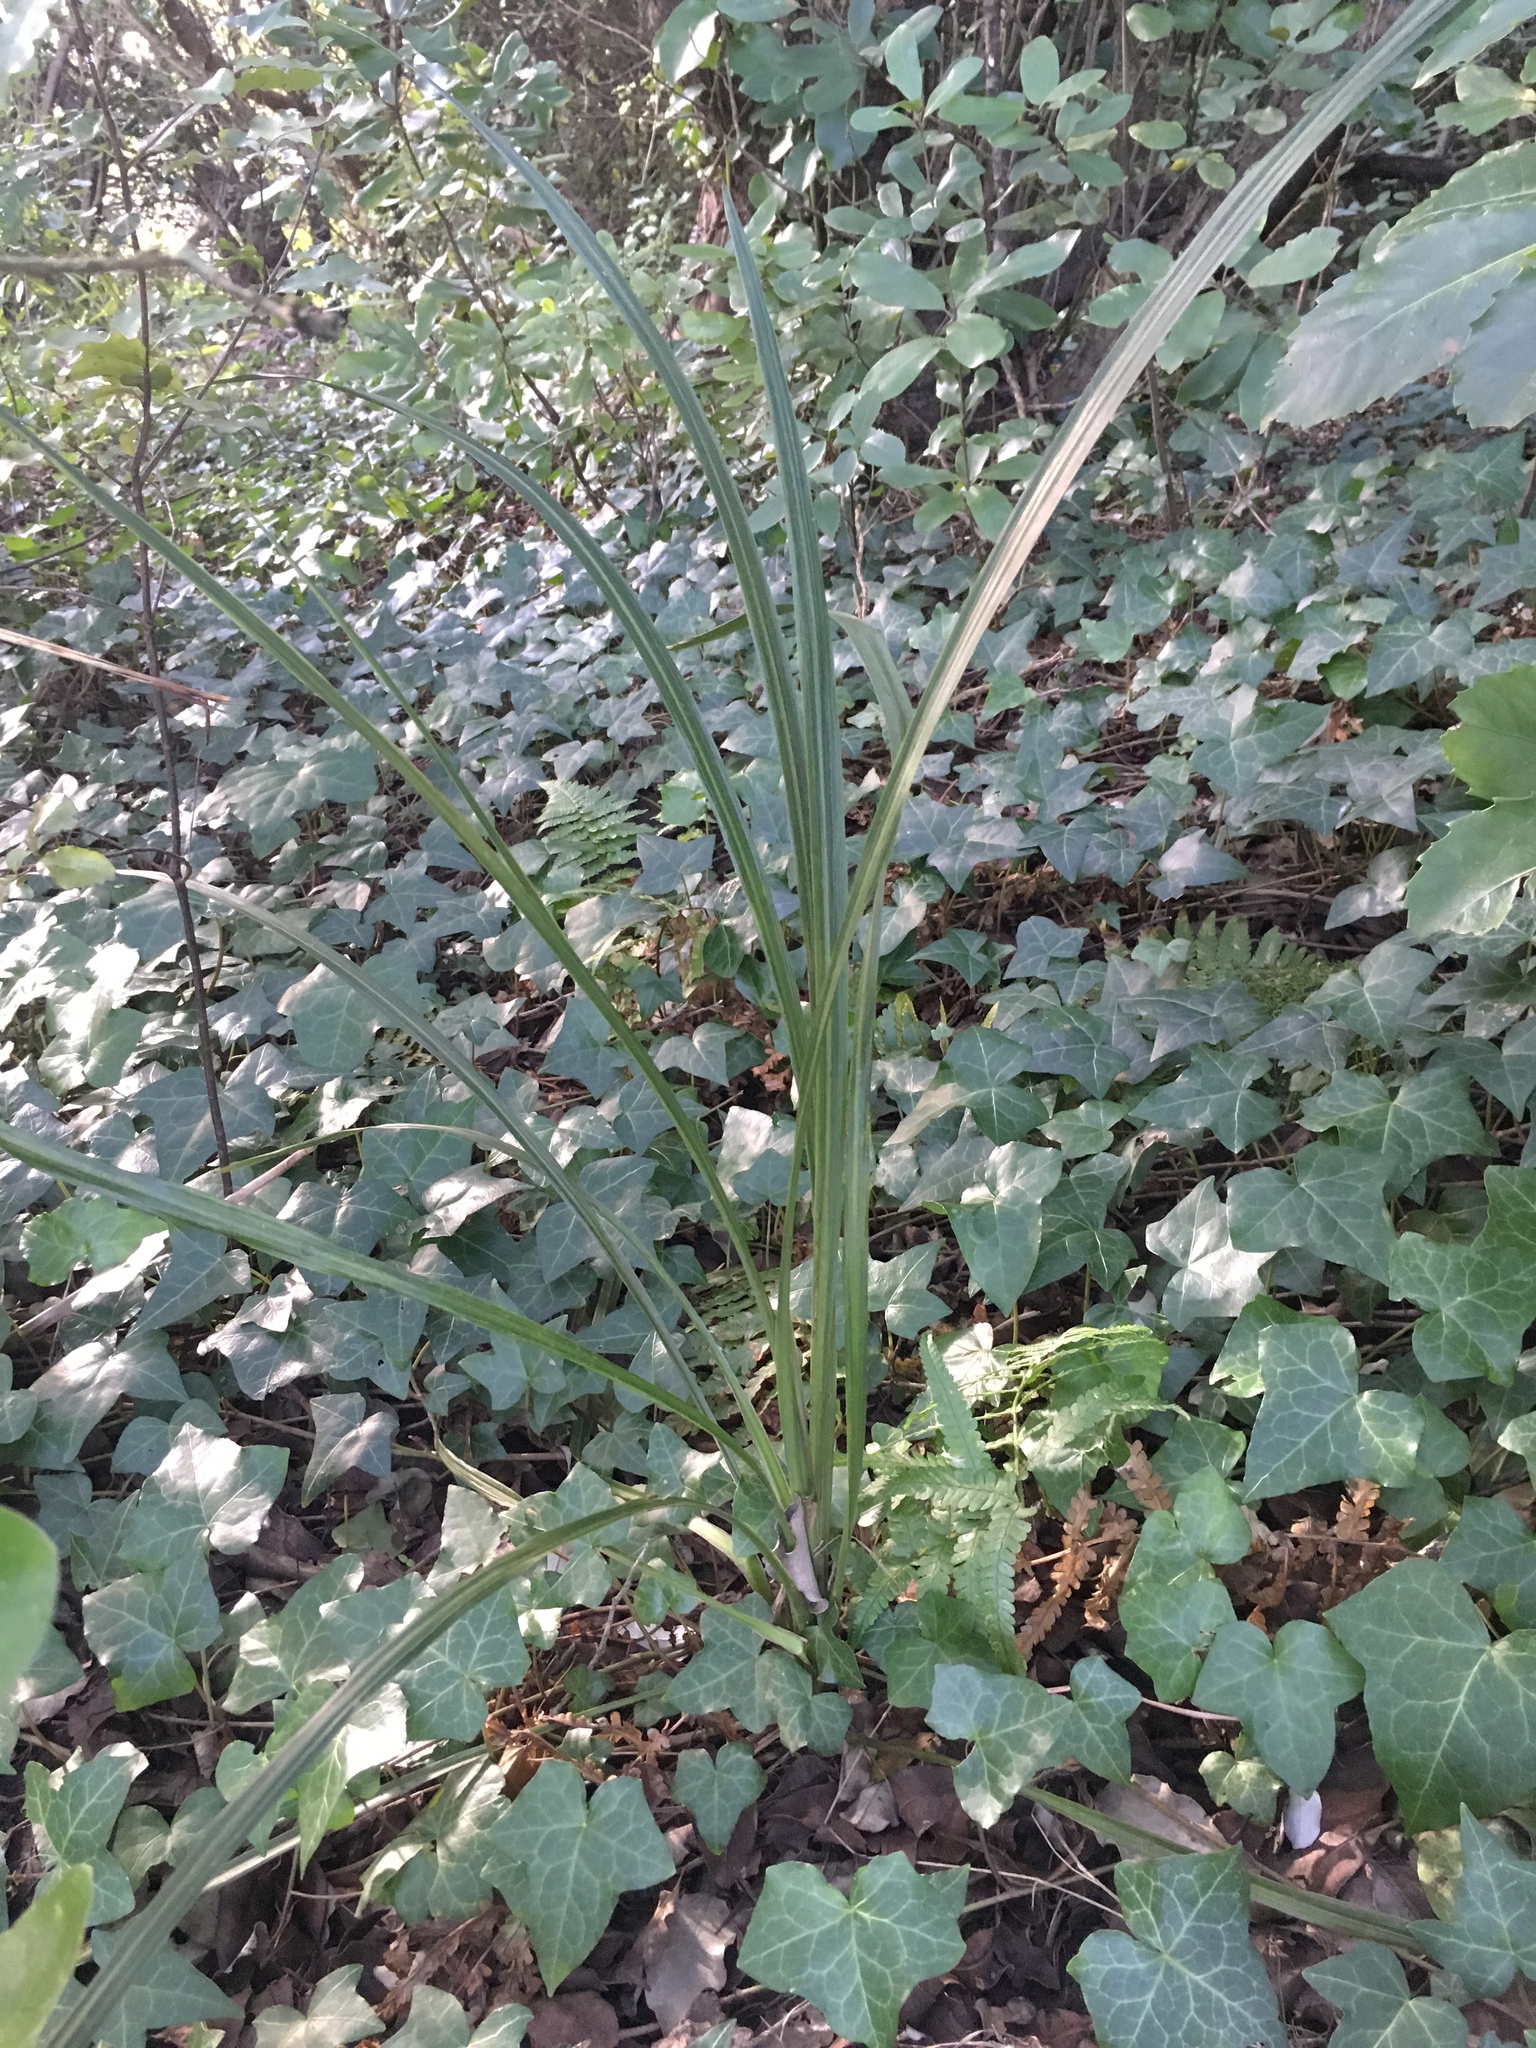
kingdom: Plantae
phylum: Tracheophyta
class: Liliopsida
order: Asparagales
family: Asparagaceae
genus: Cordyline
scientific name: Cordyline australis
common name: Cabbage-palm
